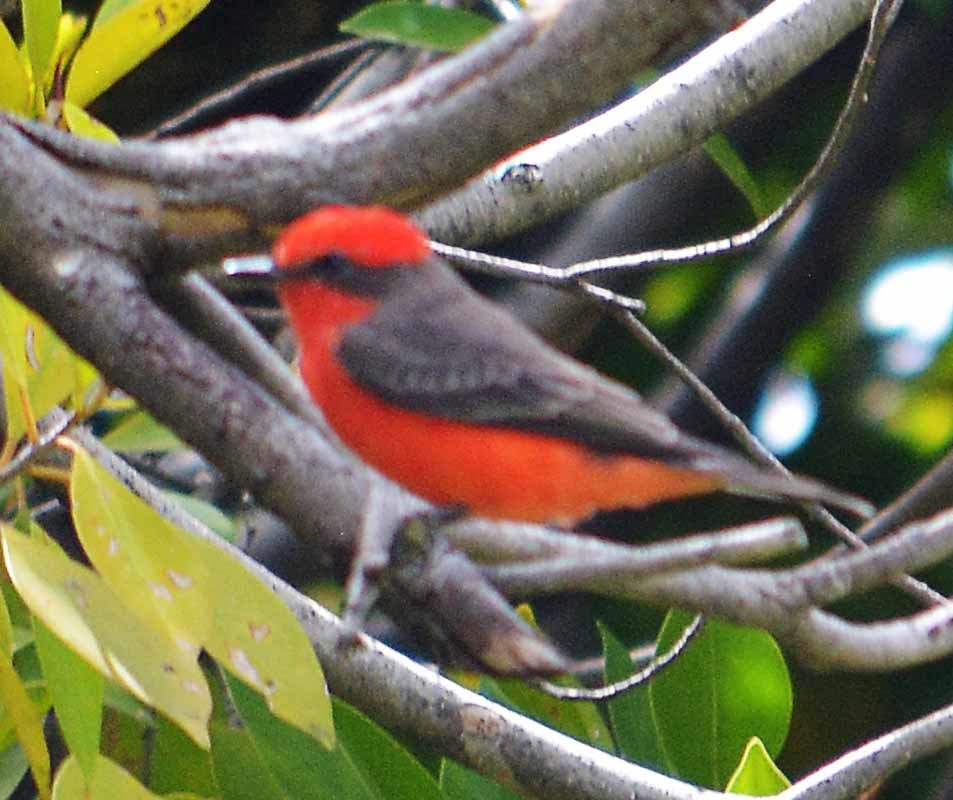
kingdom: Animalia
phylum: Chordata
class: Aves
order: Passeriformes
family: Tyrannidae
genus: Pyrocephalus
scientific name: Pyrocephalus rubinus
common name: Vermilion flycatcher
